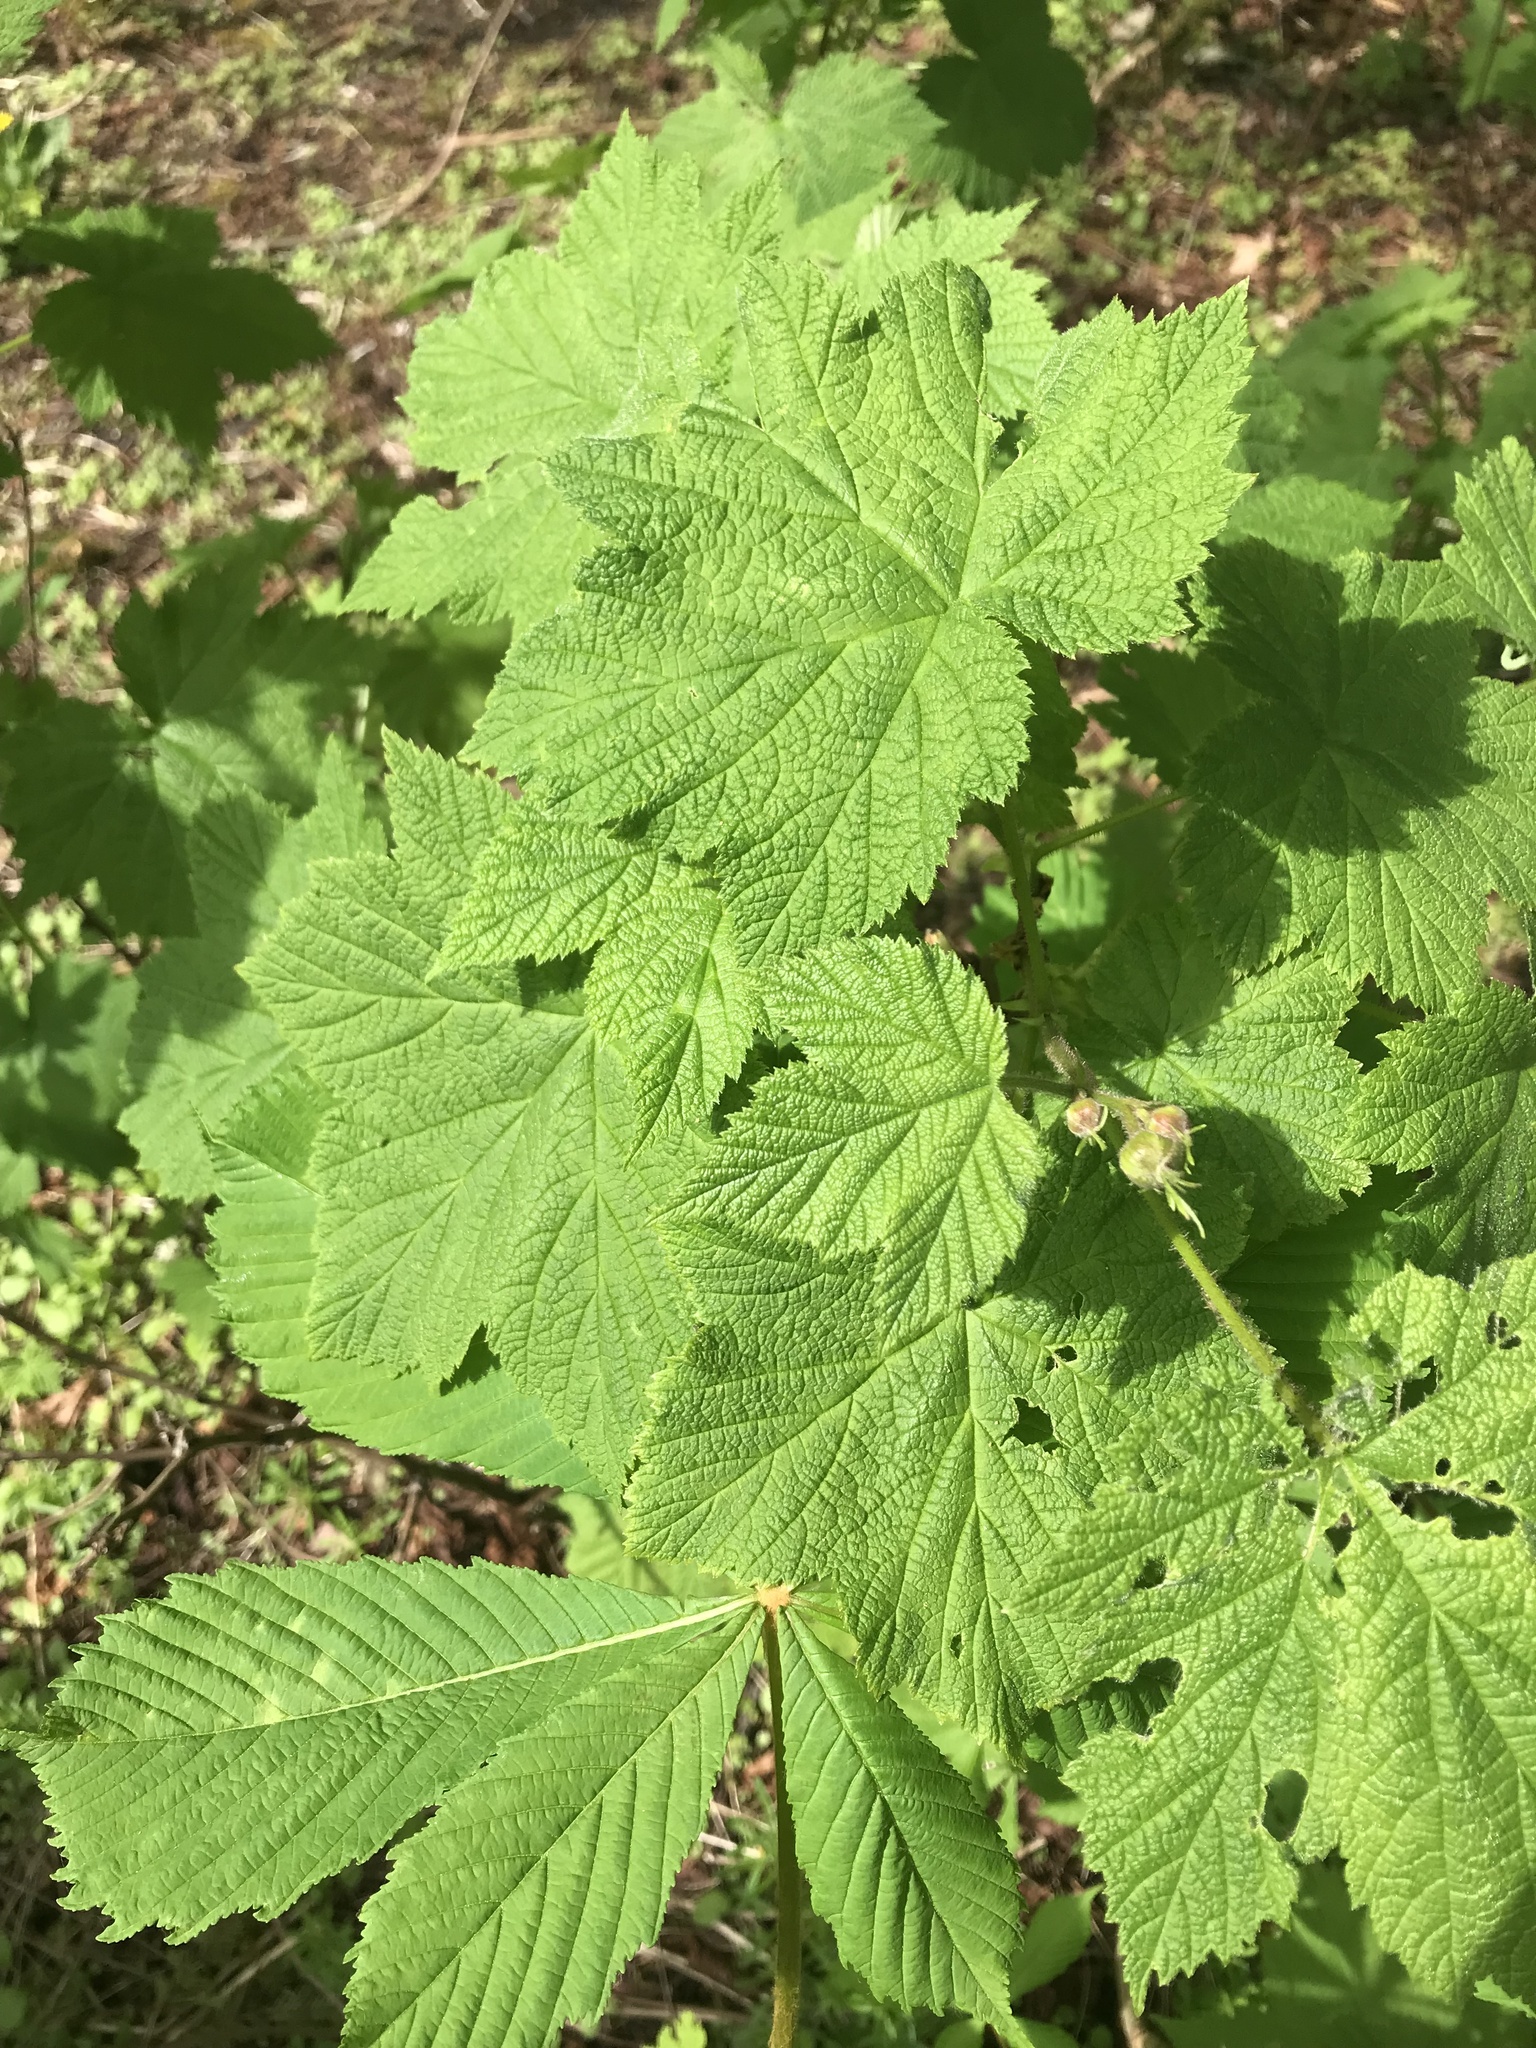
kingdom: Plantae
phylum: Tracheophyta
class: Magnoliopsida
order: Rosales
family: Rosaceae
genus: Rubus
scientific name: Rubus parviflorus
